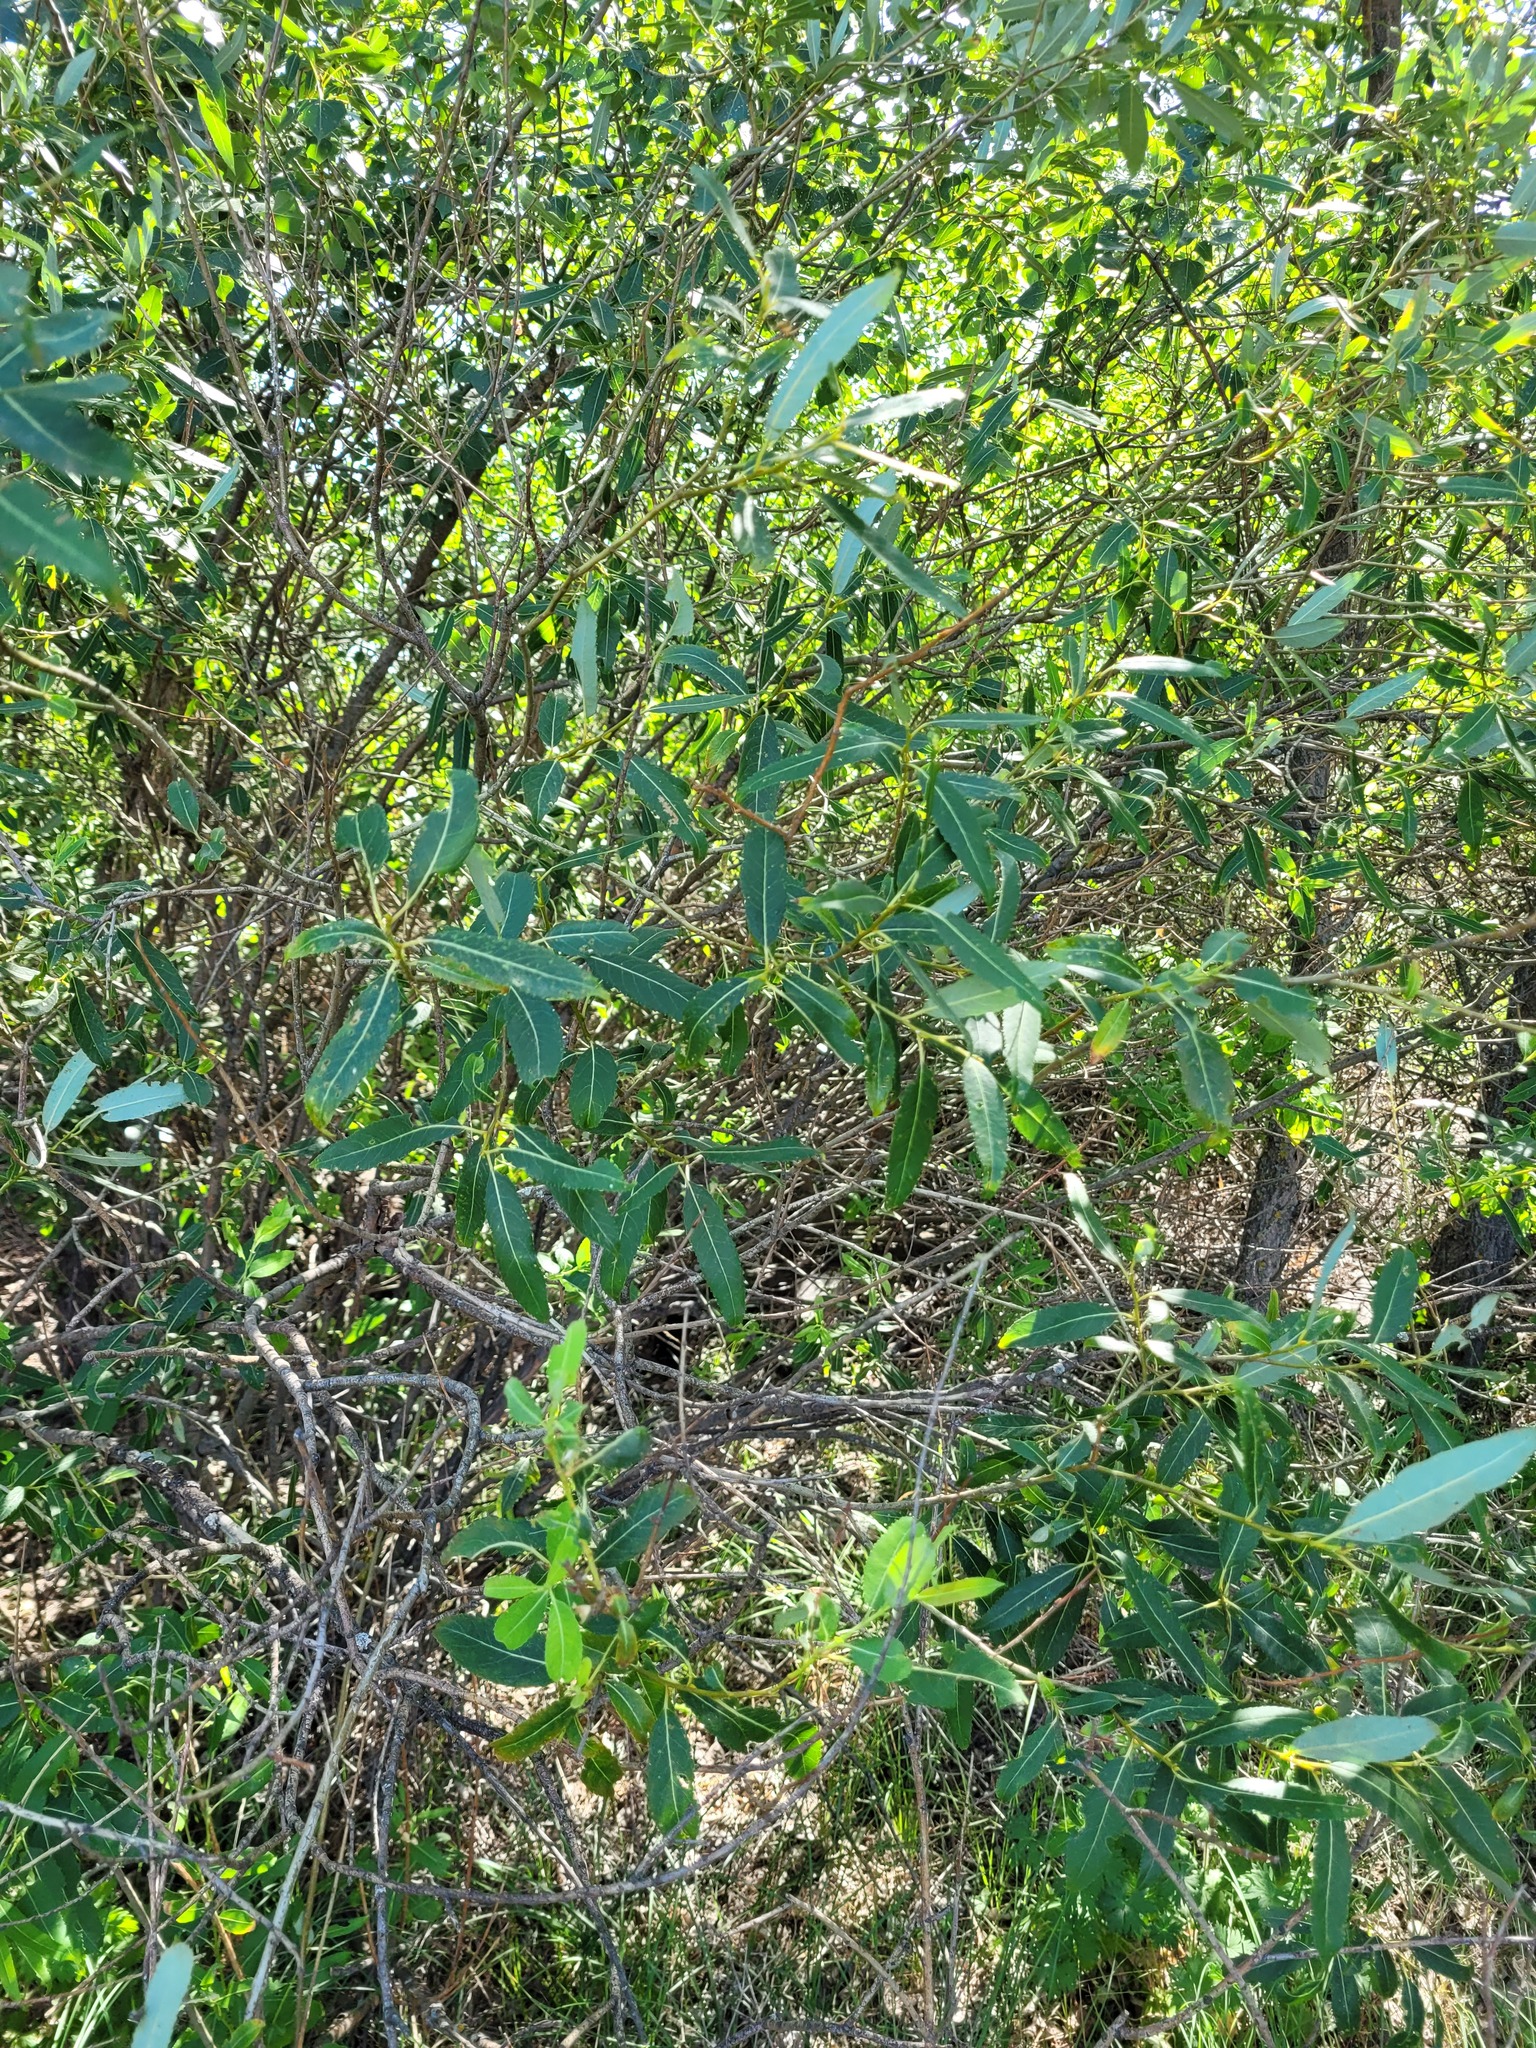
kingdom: Plantae
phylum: Tracheophyta
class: Magnoliopsida
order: Malpighiales
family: Salicaceae
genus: Salix
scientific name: Salix triandra
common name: Almond willow
